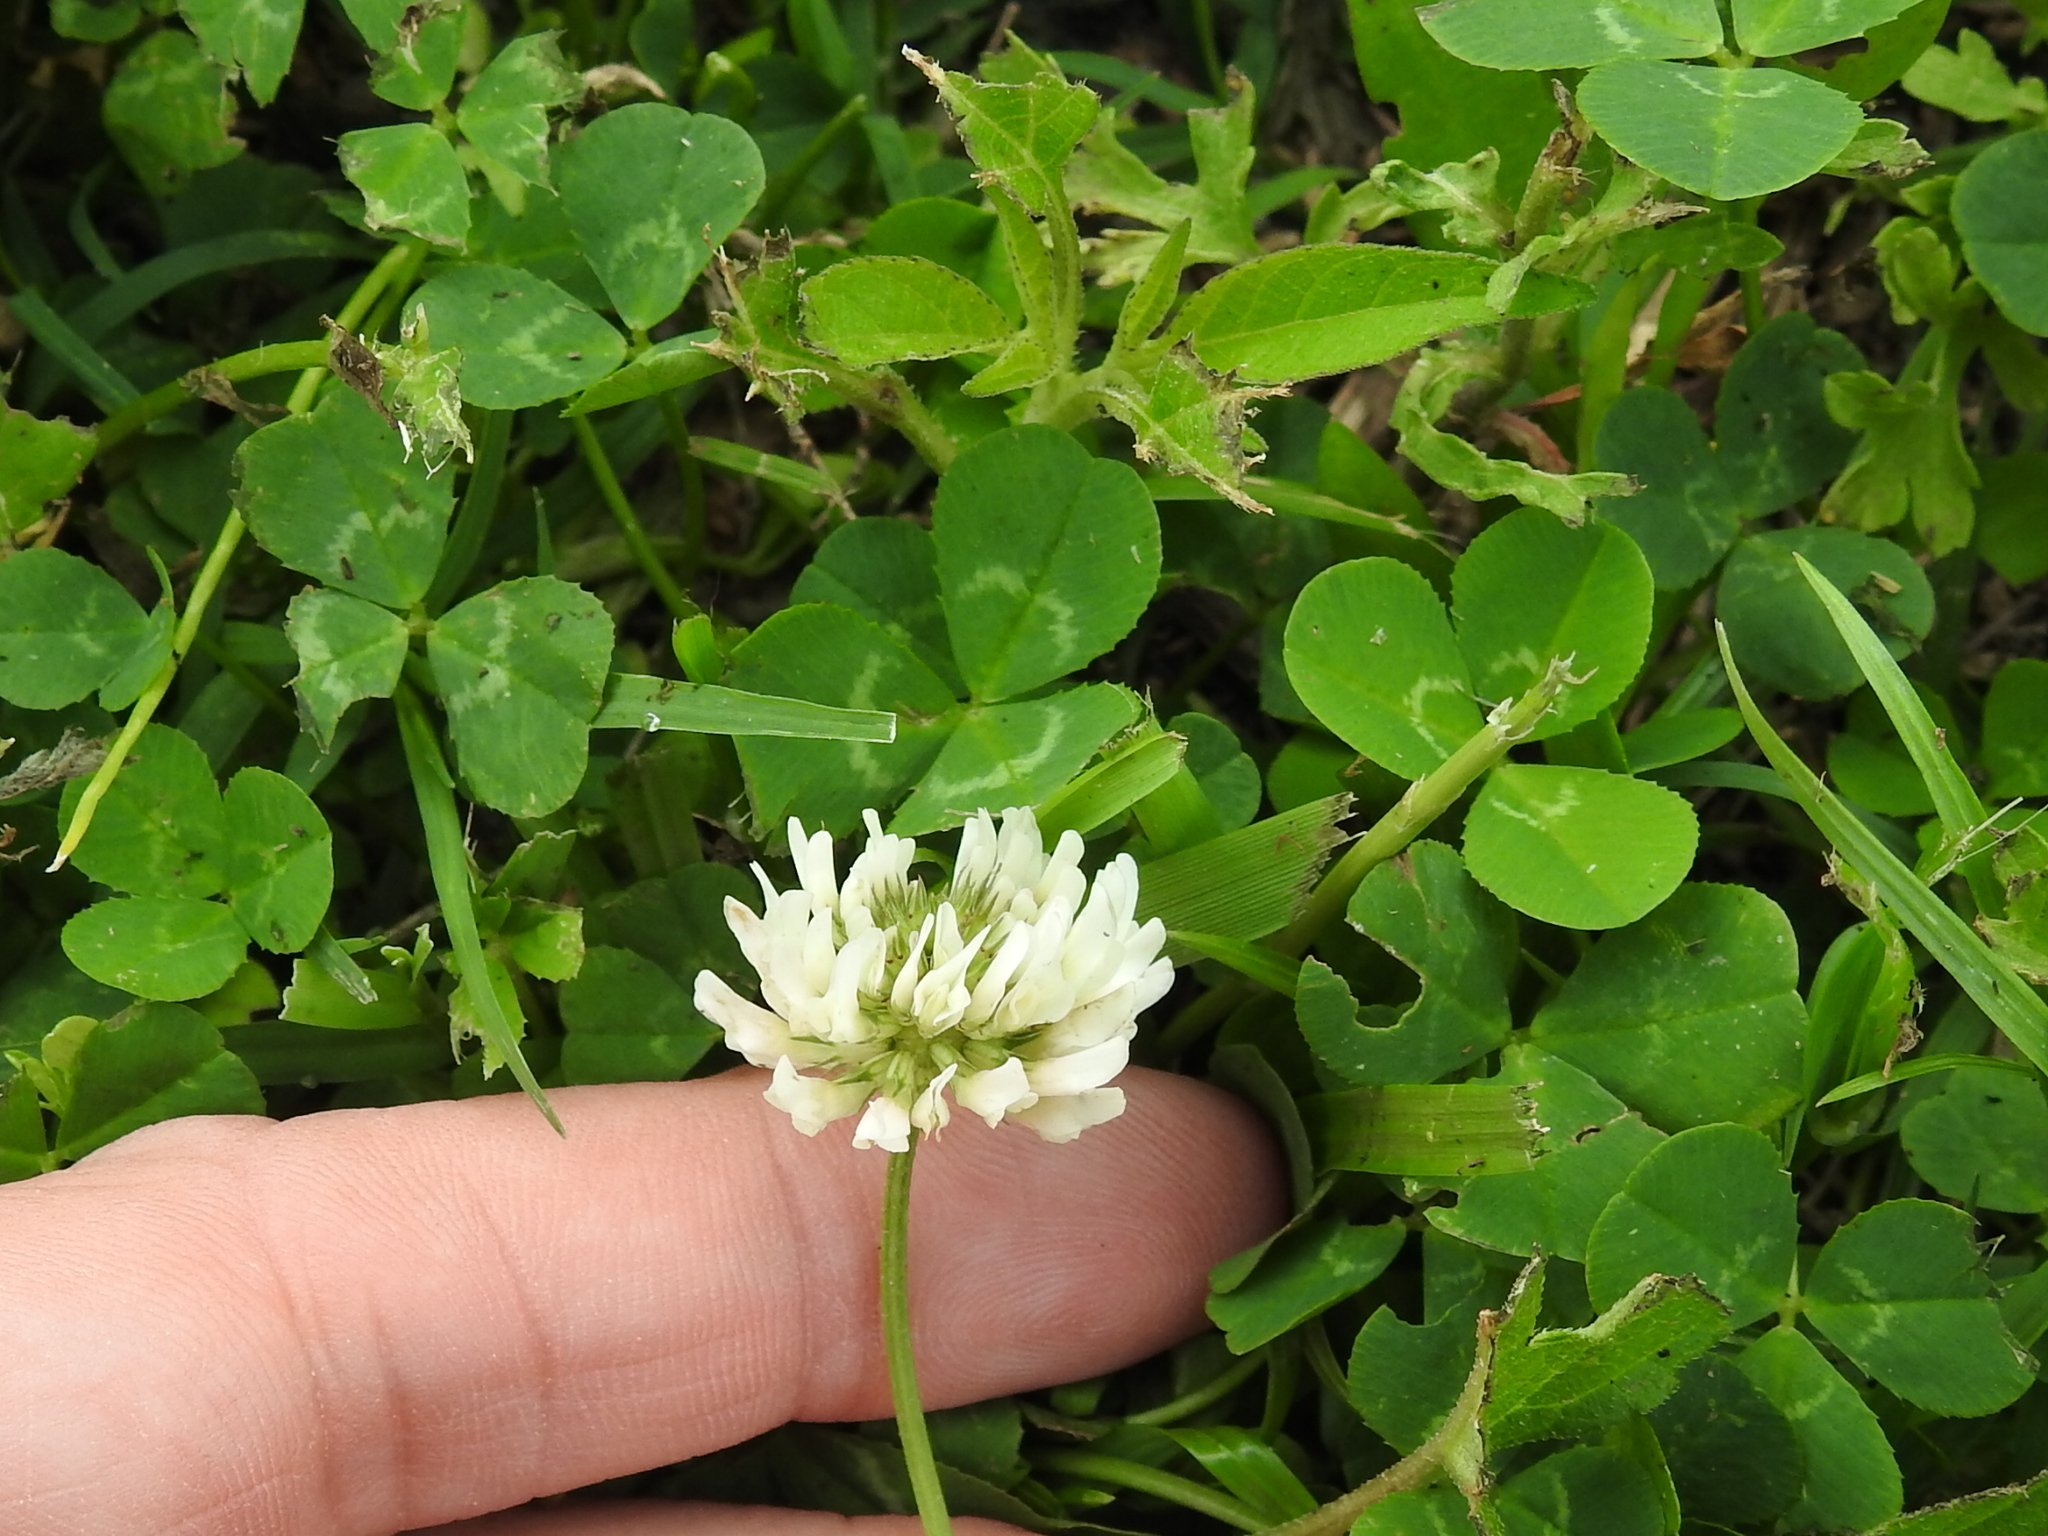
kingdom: Plantae
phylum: Tracheophyta
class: Magnoliopsida
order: Fabales
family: Fabaceae
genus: Trifolium
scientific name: Trifolium repens
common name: White clover
